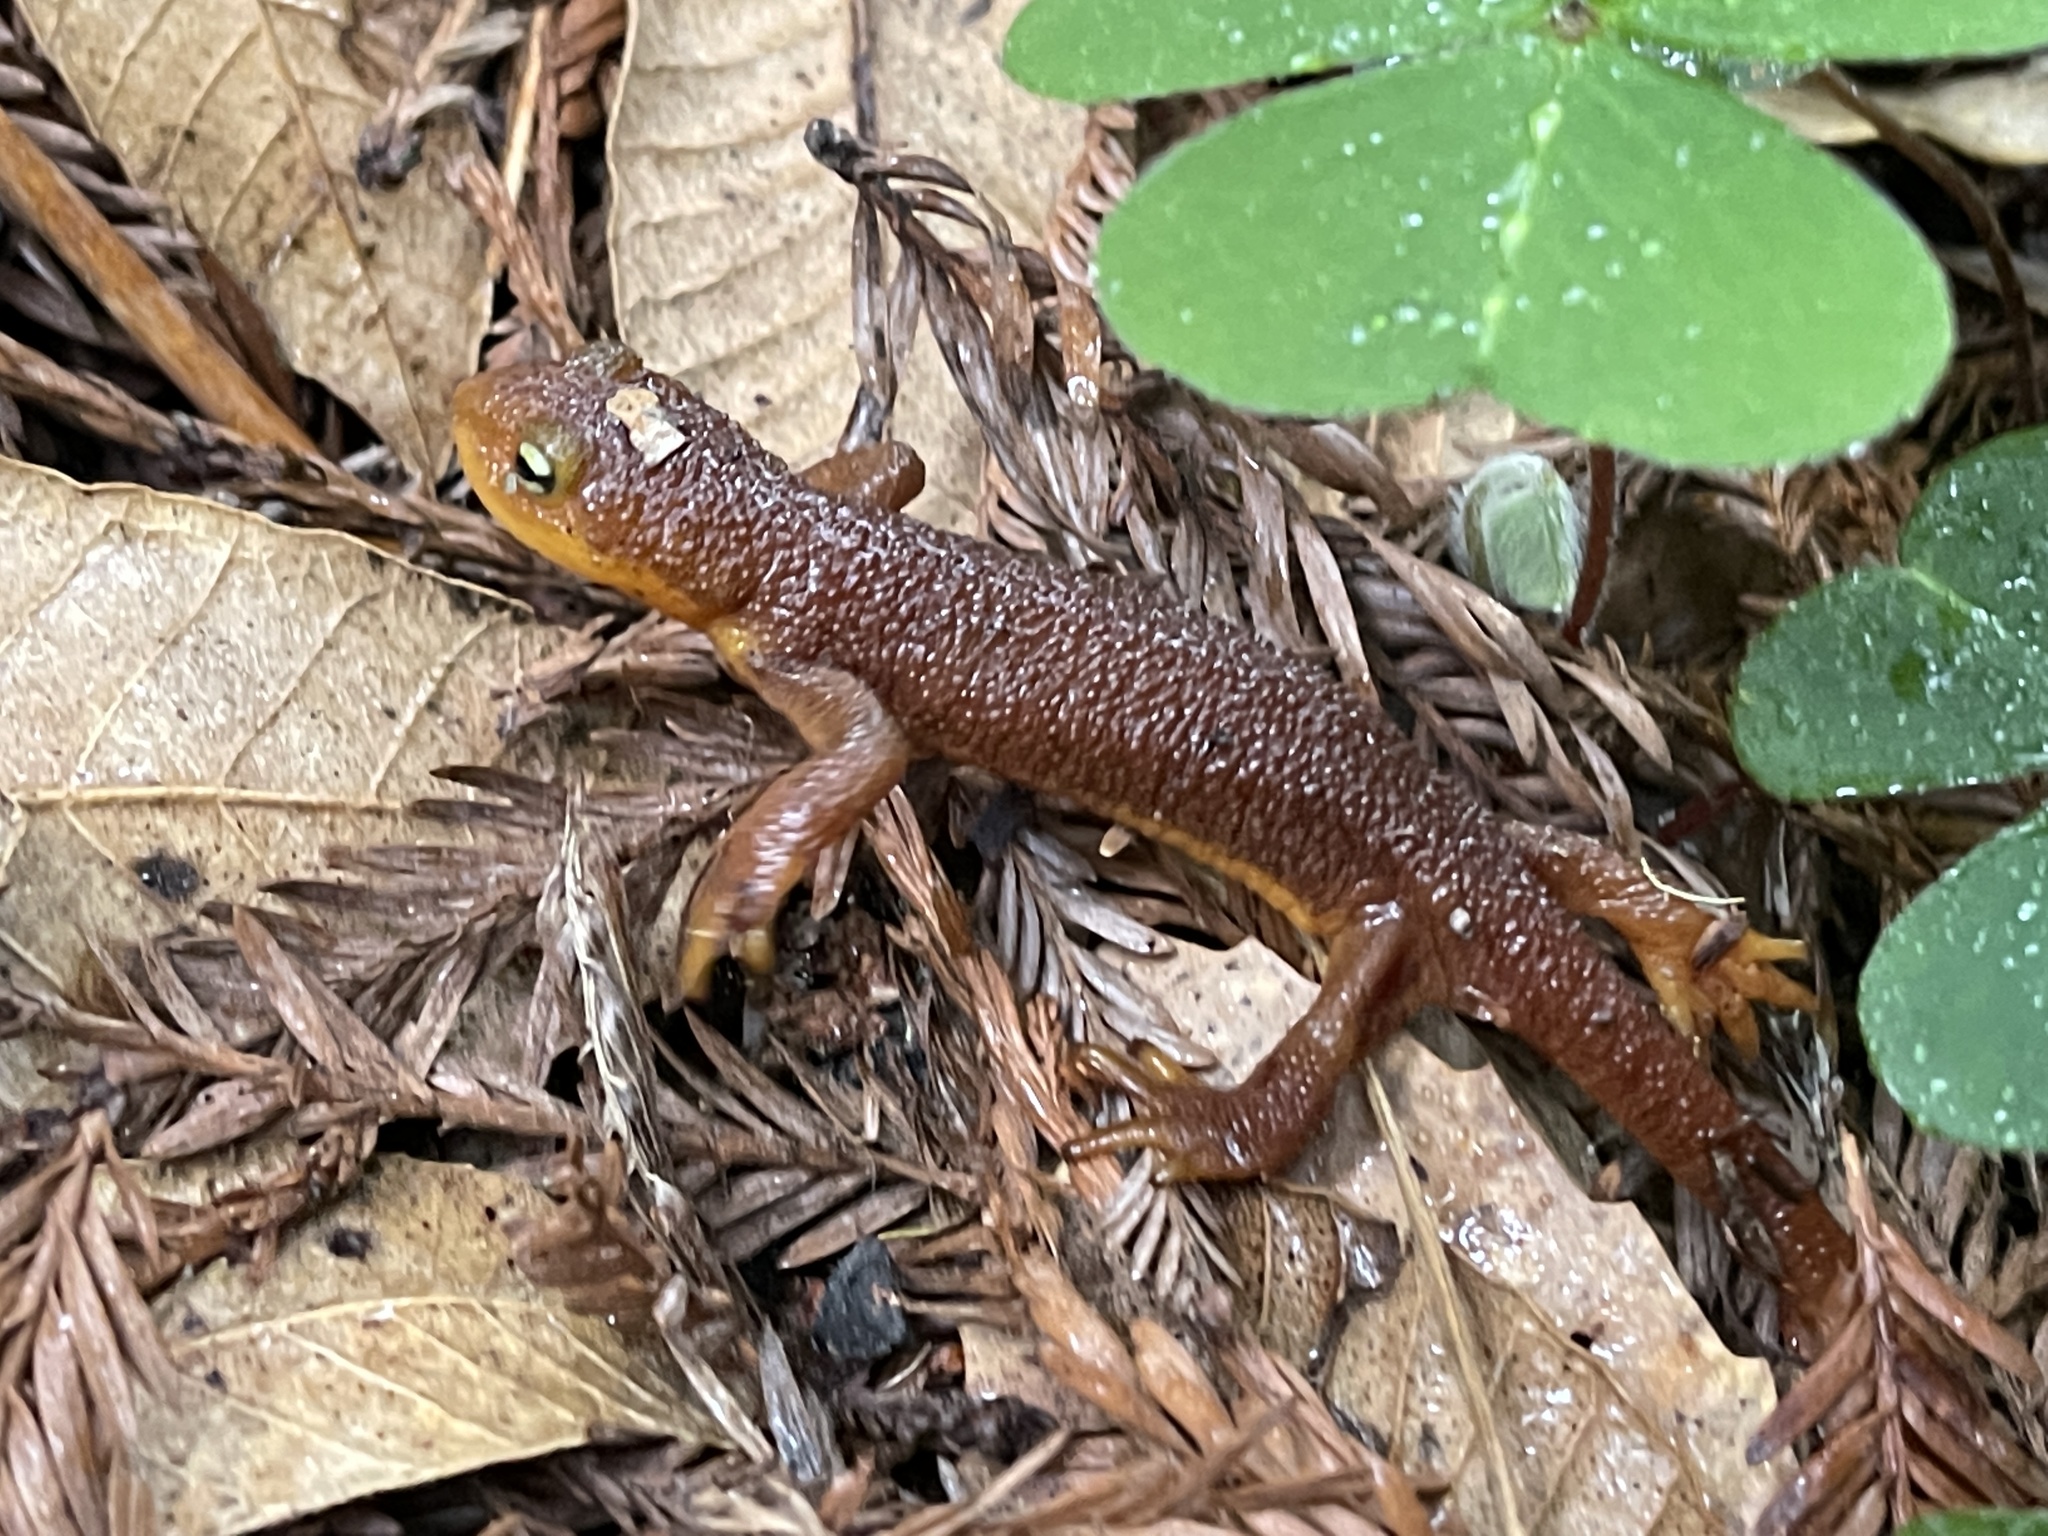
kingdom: Animalia
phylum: Chordata
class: Amphibia
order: Caudata
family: Salamandridae
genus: Taricha
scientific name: Taricha torosa
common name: California newt
